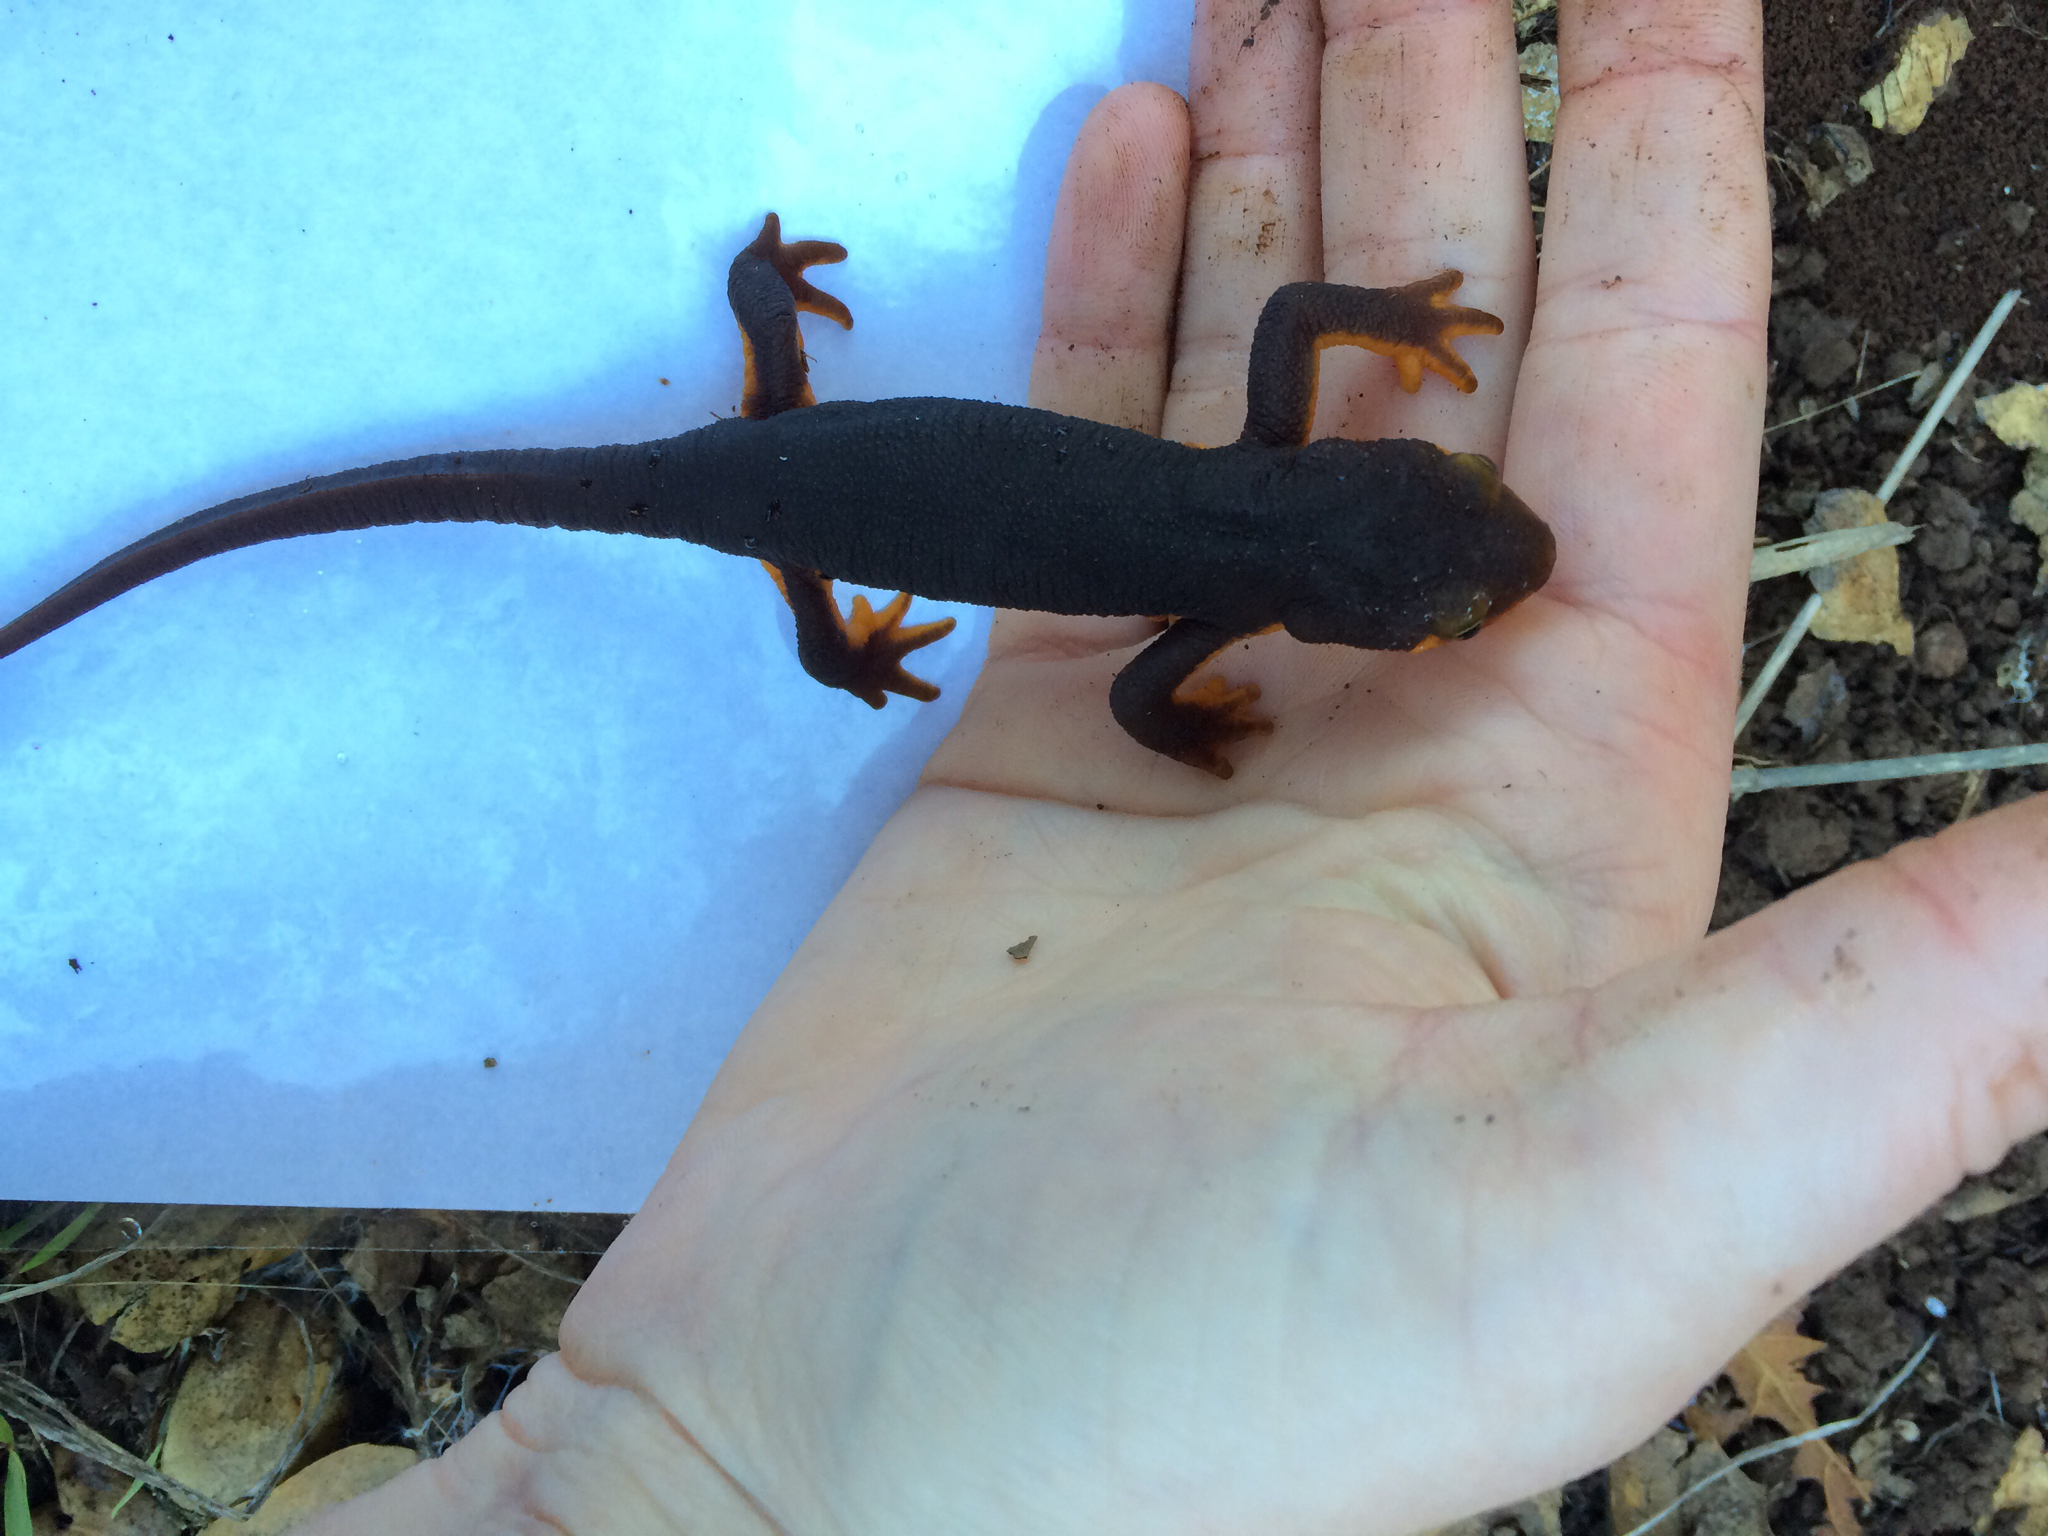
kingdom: Animalia
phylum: Chordata
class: Amphibia
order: Caudata
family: Salamandridae
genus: Taricha
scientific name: Taricha torosa
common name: California newt
